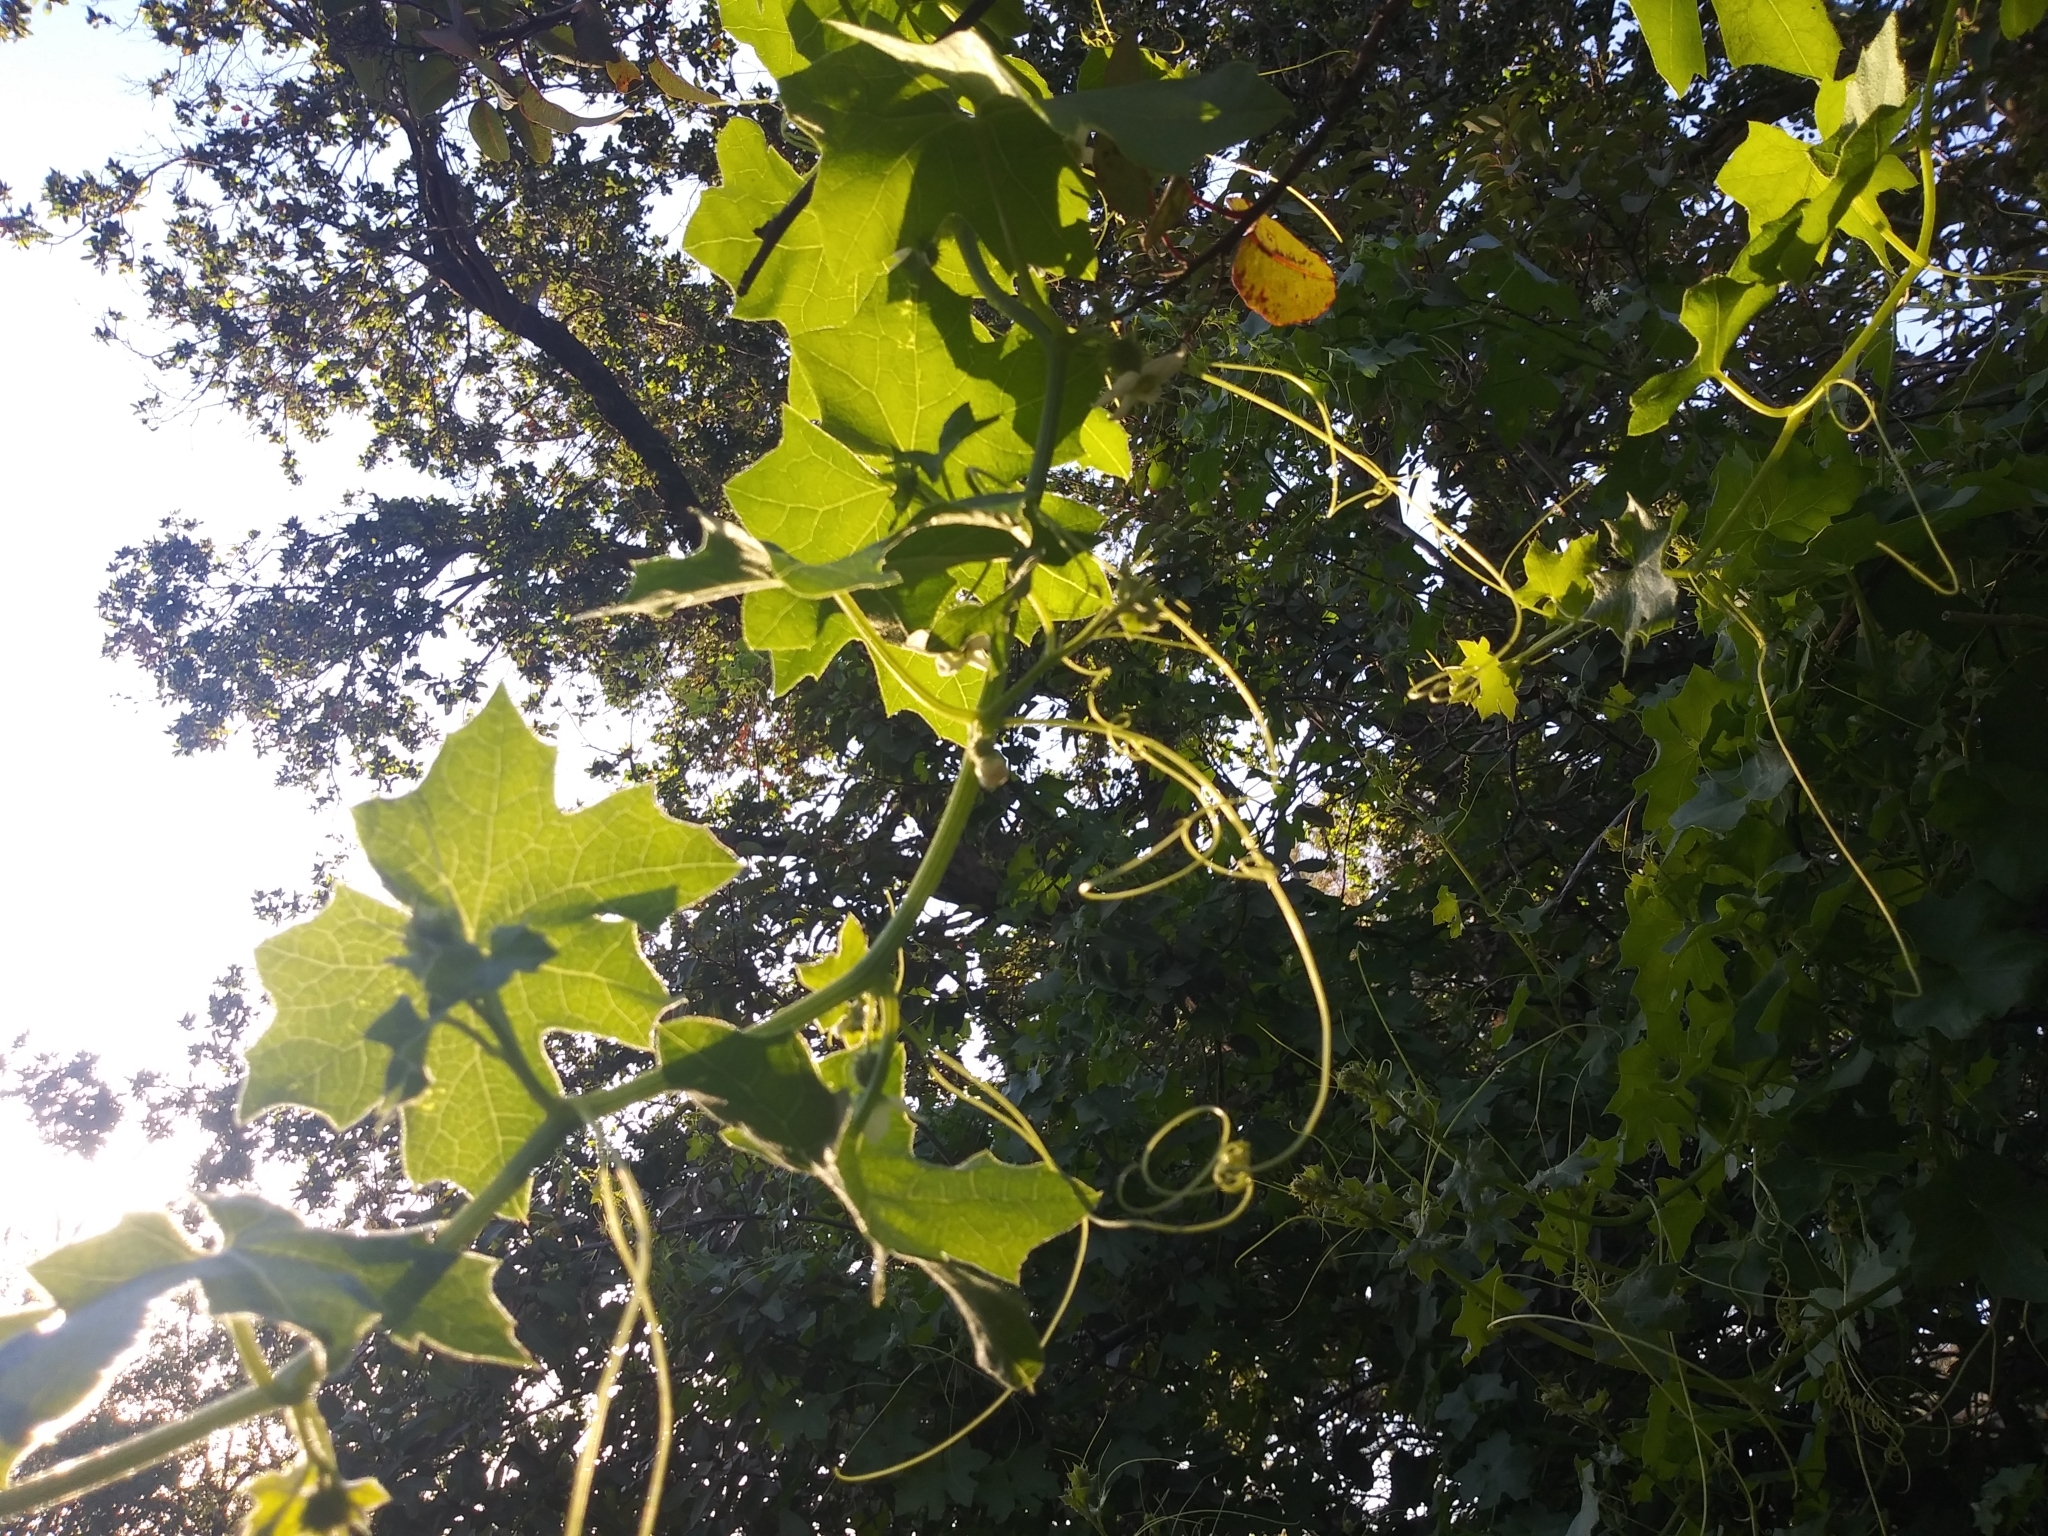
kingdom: Plantae
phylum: Tracheophyta
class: Magnoliopsida
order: Cucurbitales
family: Cucurbitaceae
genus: Marah
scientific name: Marah macrocarpa
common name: Cucamonga manroot
